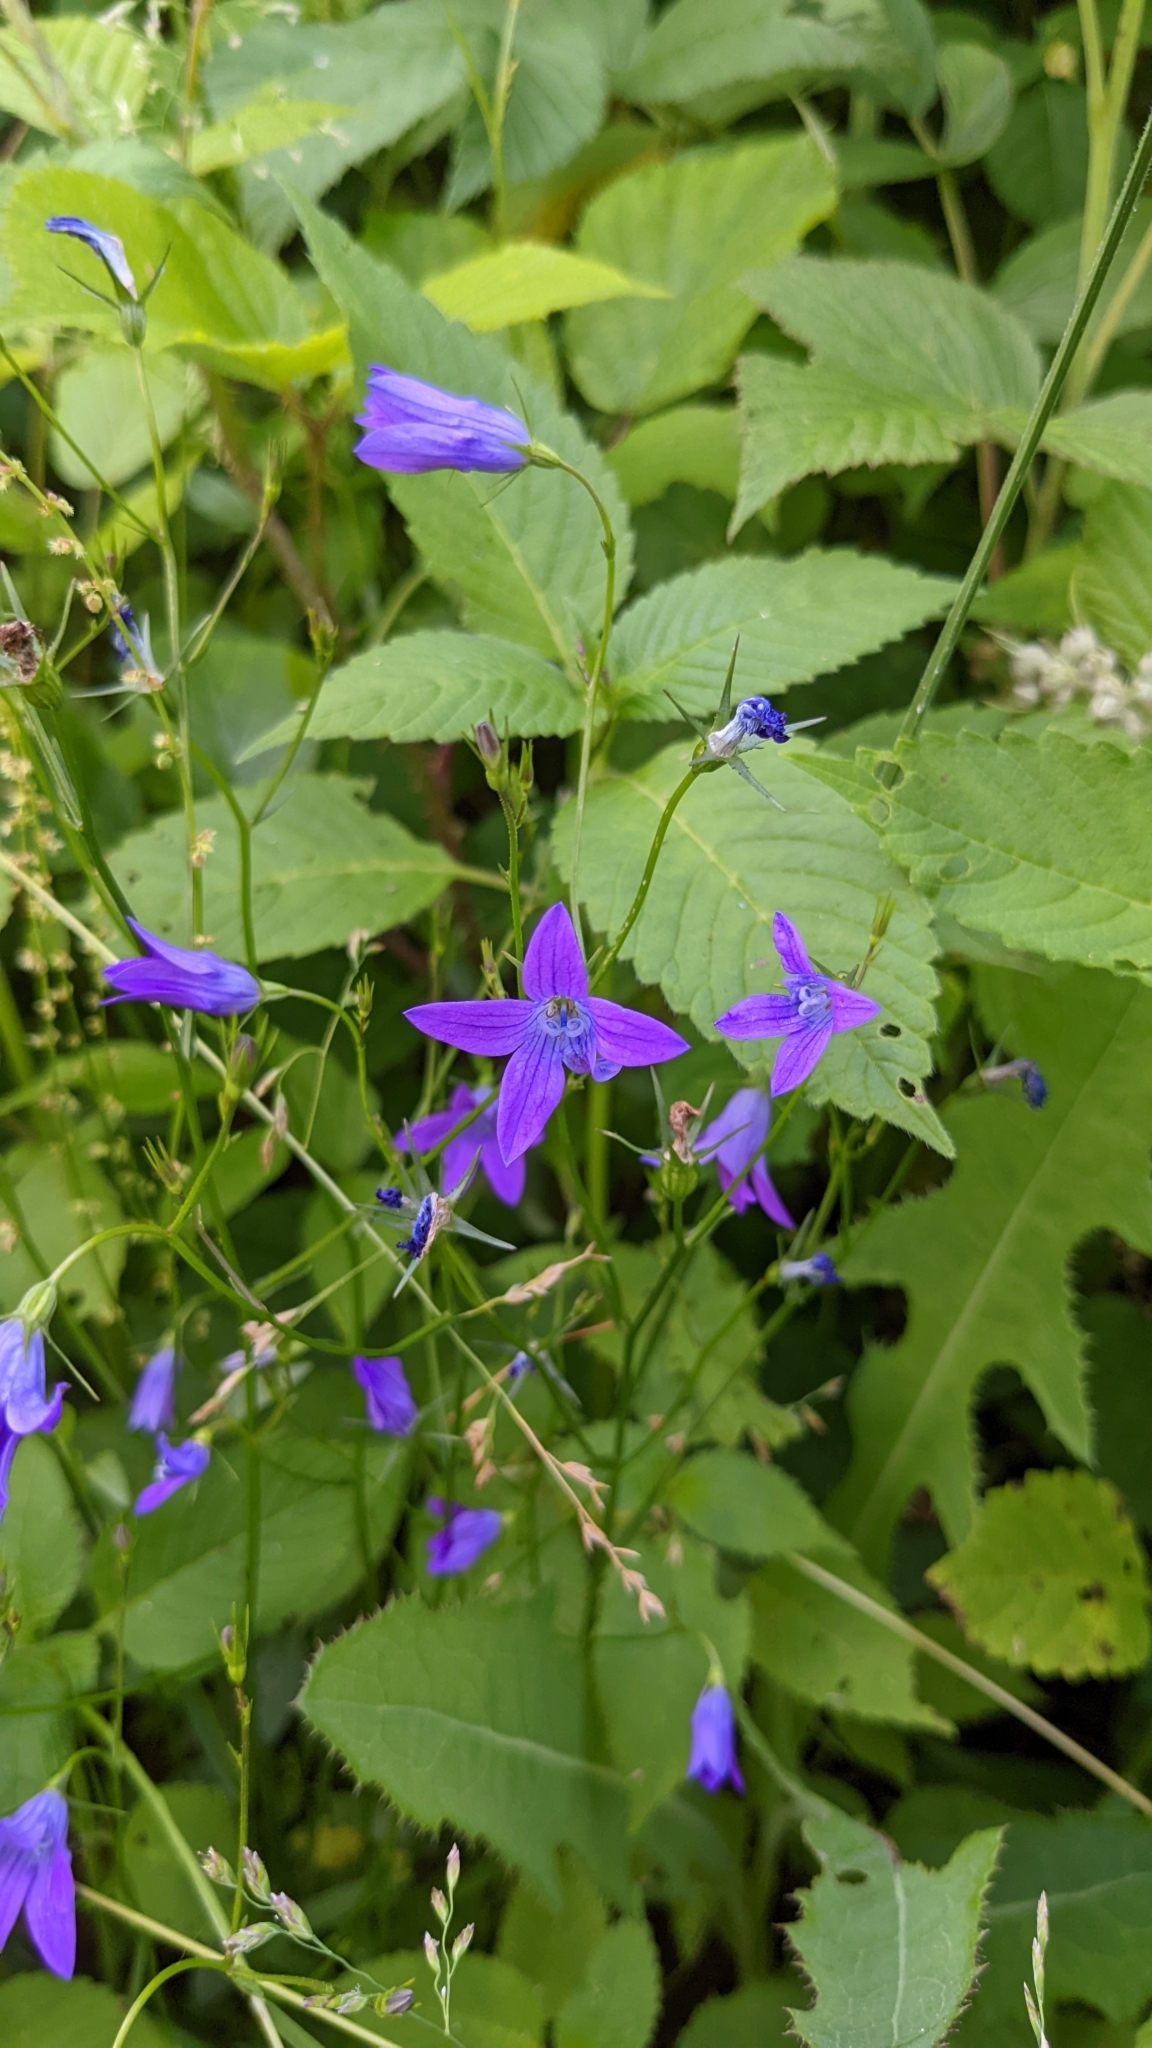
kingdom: Plantae
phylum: Tracheophyta
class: Magnoliopsida
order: Asterales
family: Campanulaceae
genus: Campanula
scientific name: Campanula patula
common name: Spreading bellflower
